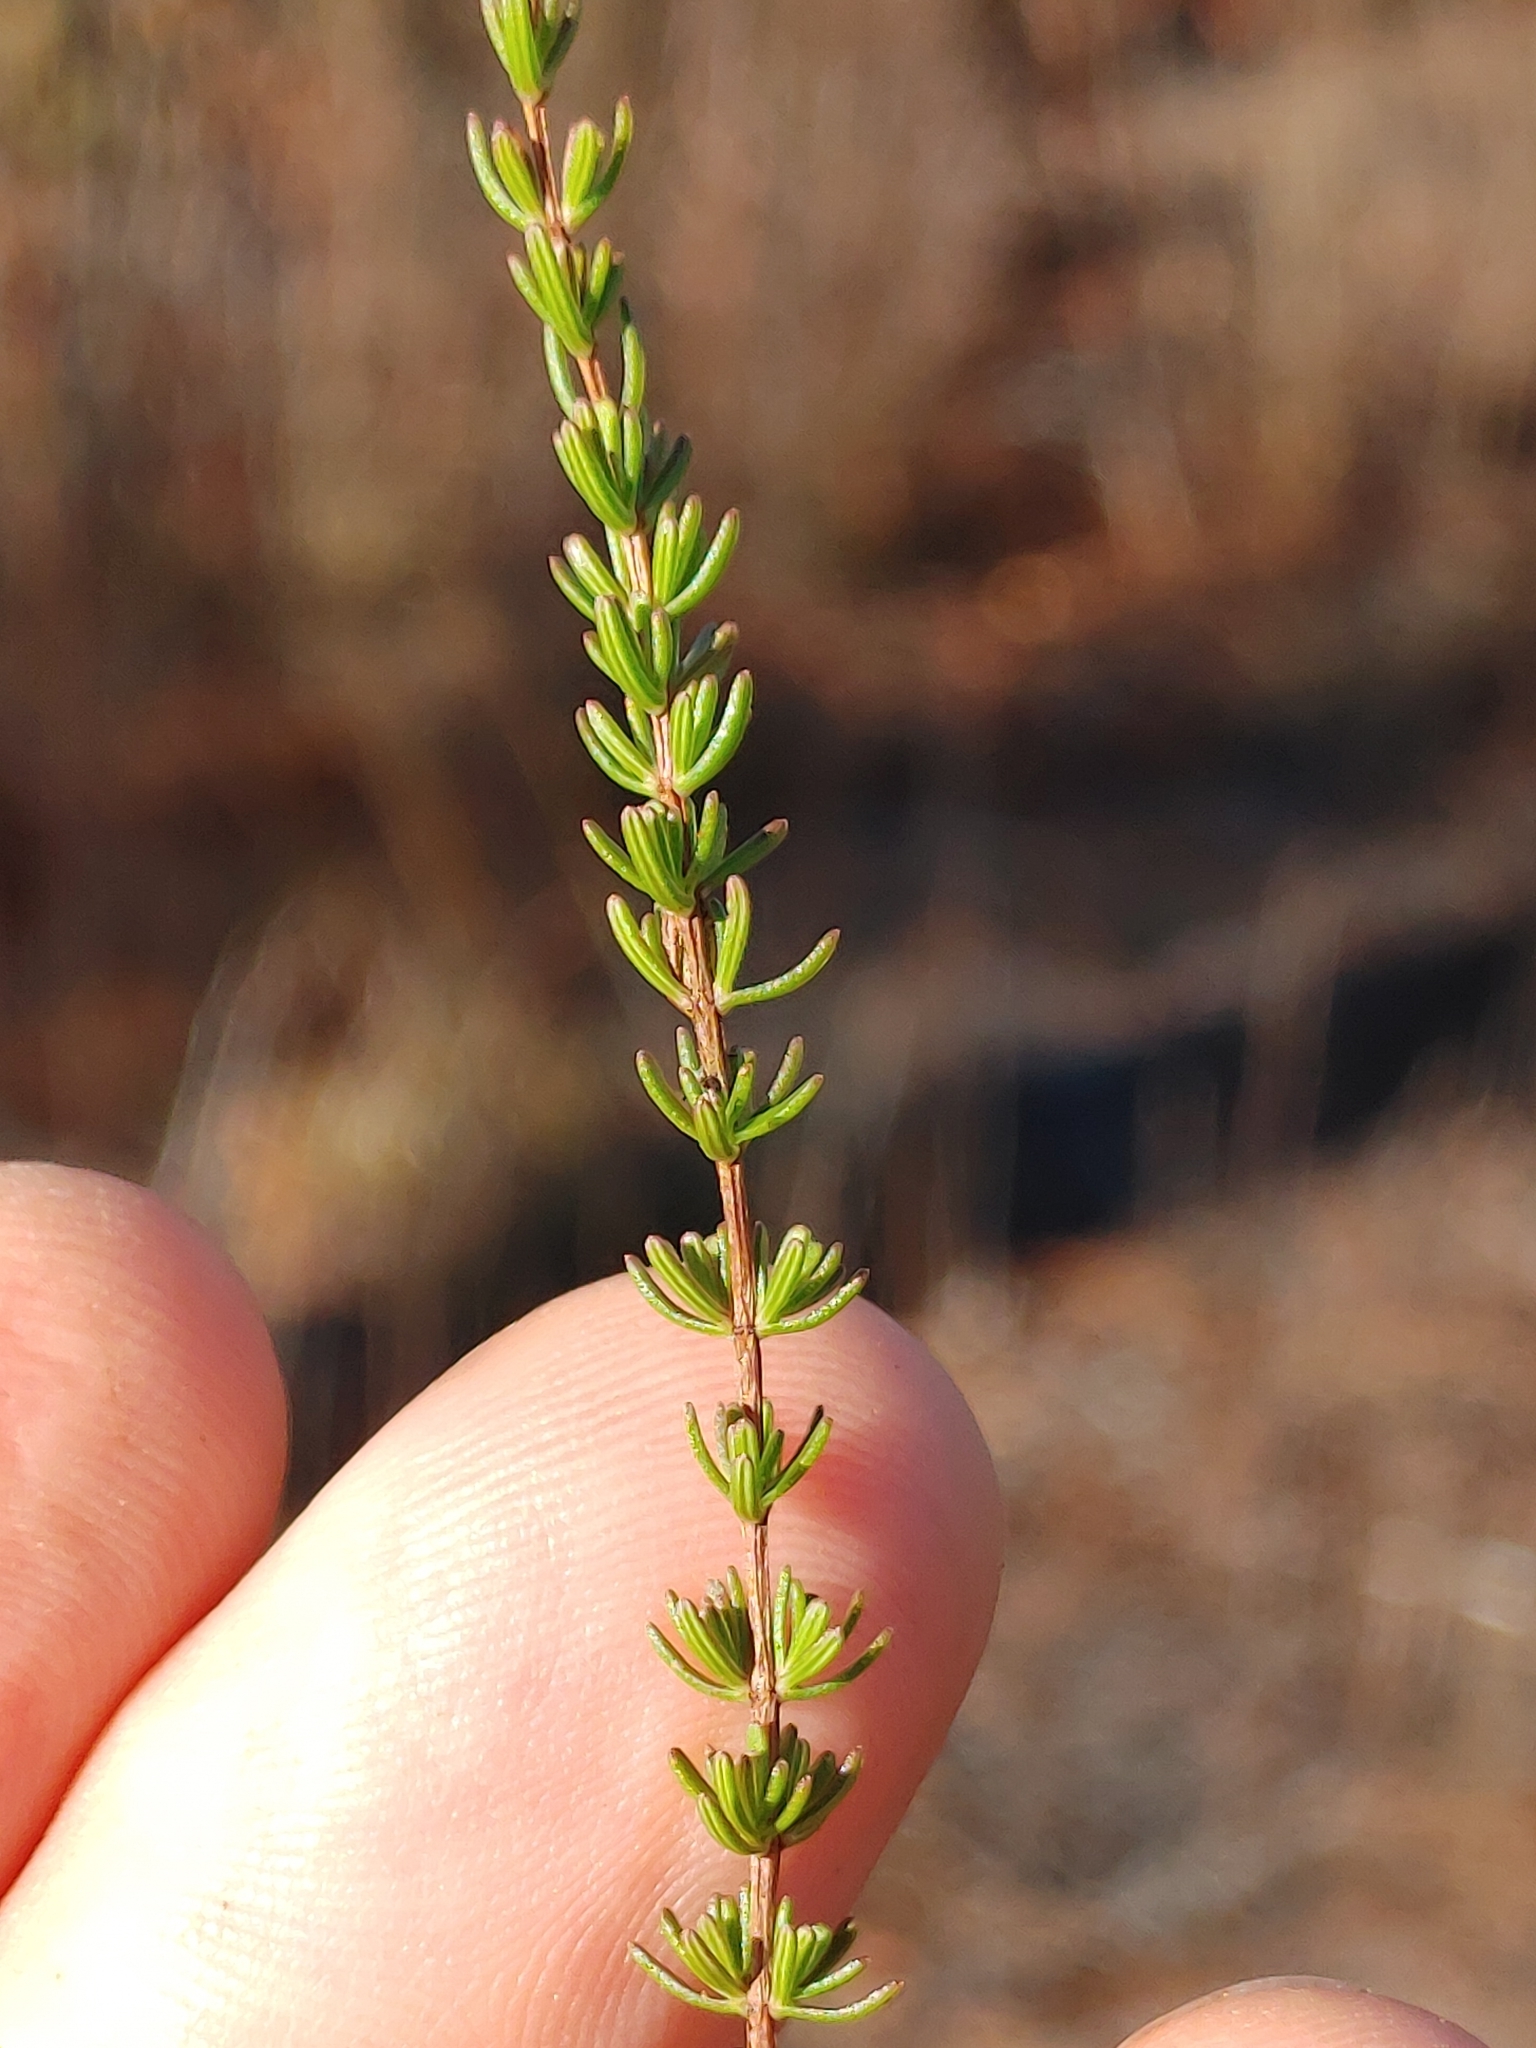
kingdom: Plantae
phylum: Tracheophyta
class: Magnoliopsida
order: Malpighiales
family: Hypericaceae
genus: Hypericum
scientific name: Hypericum tenuifolium
